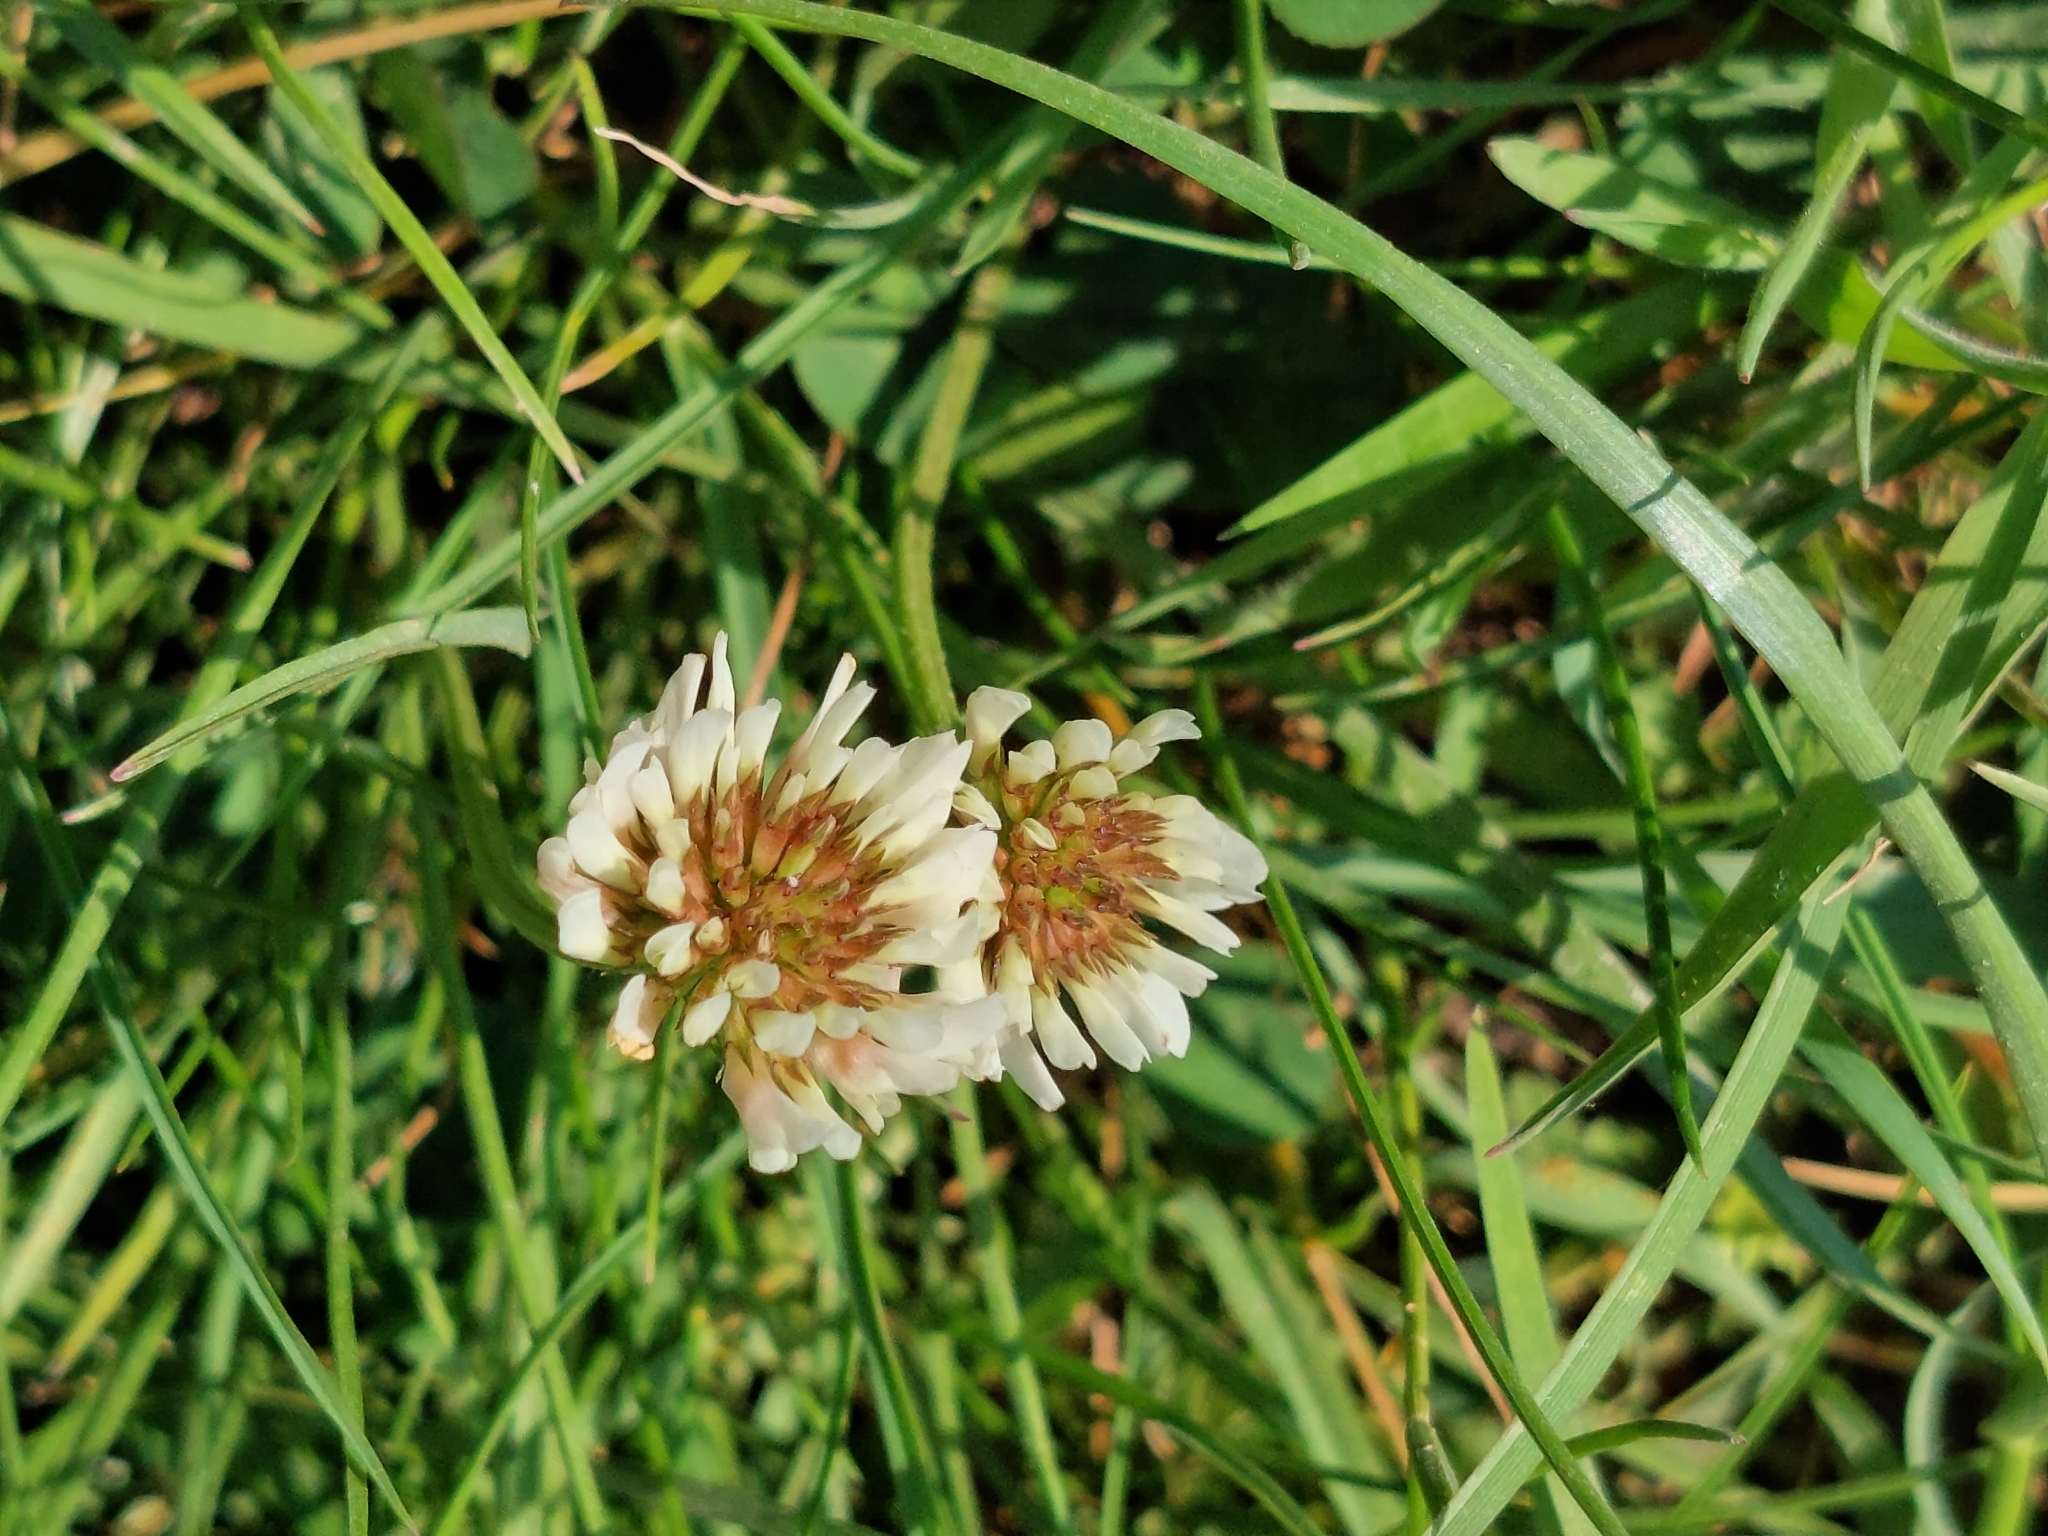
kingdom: Plantae
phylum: Tracheophyta
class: Magnoliopsida
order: Fabales
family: Fabaceae
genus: Trifolium
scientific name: Trifolium repens
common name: White clover
